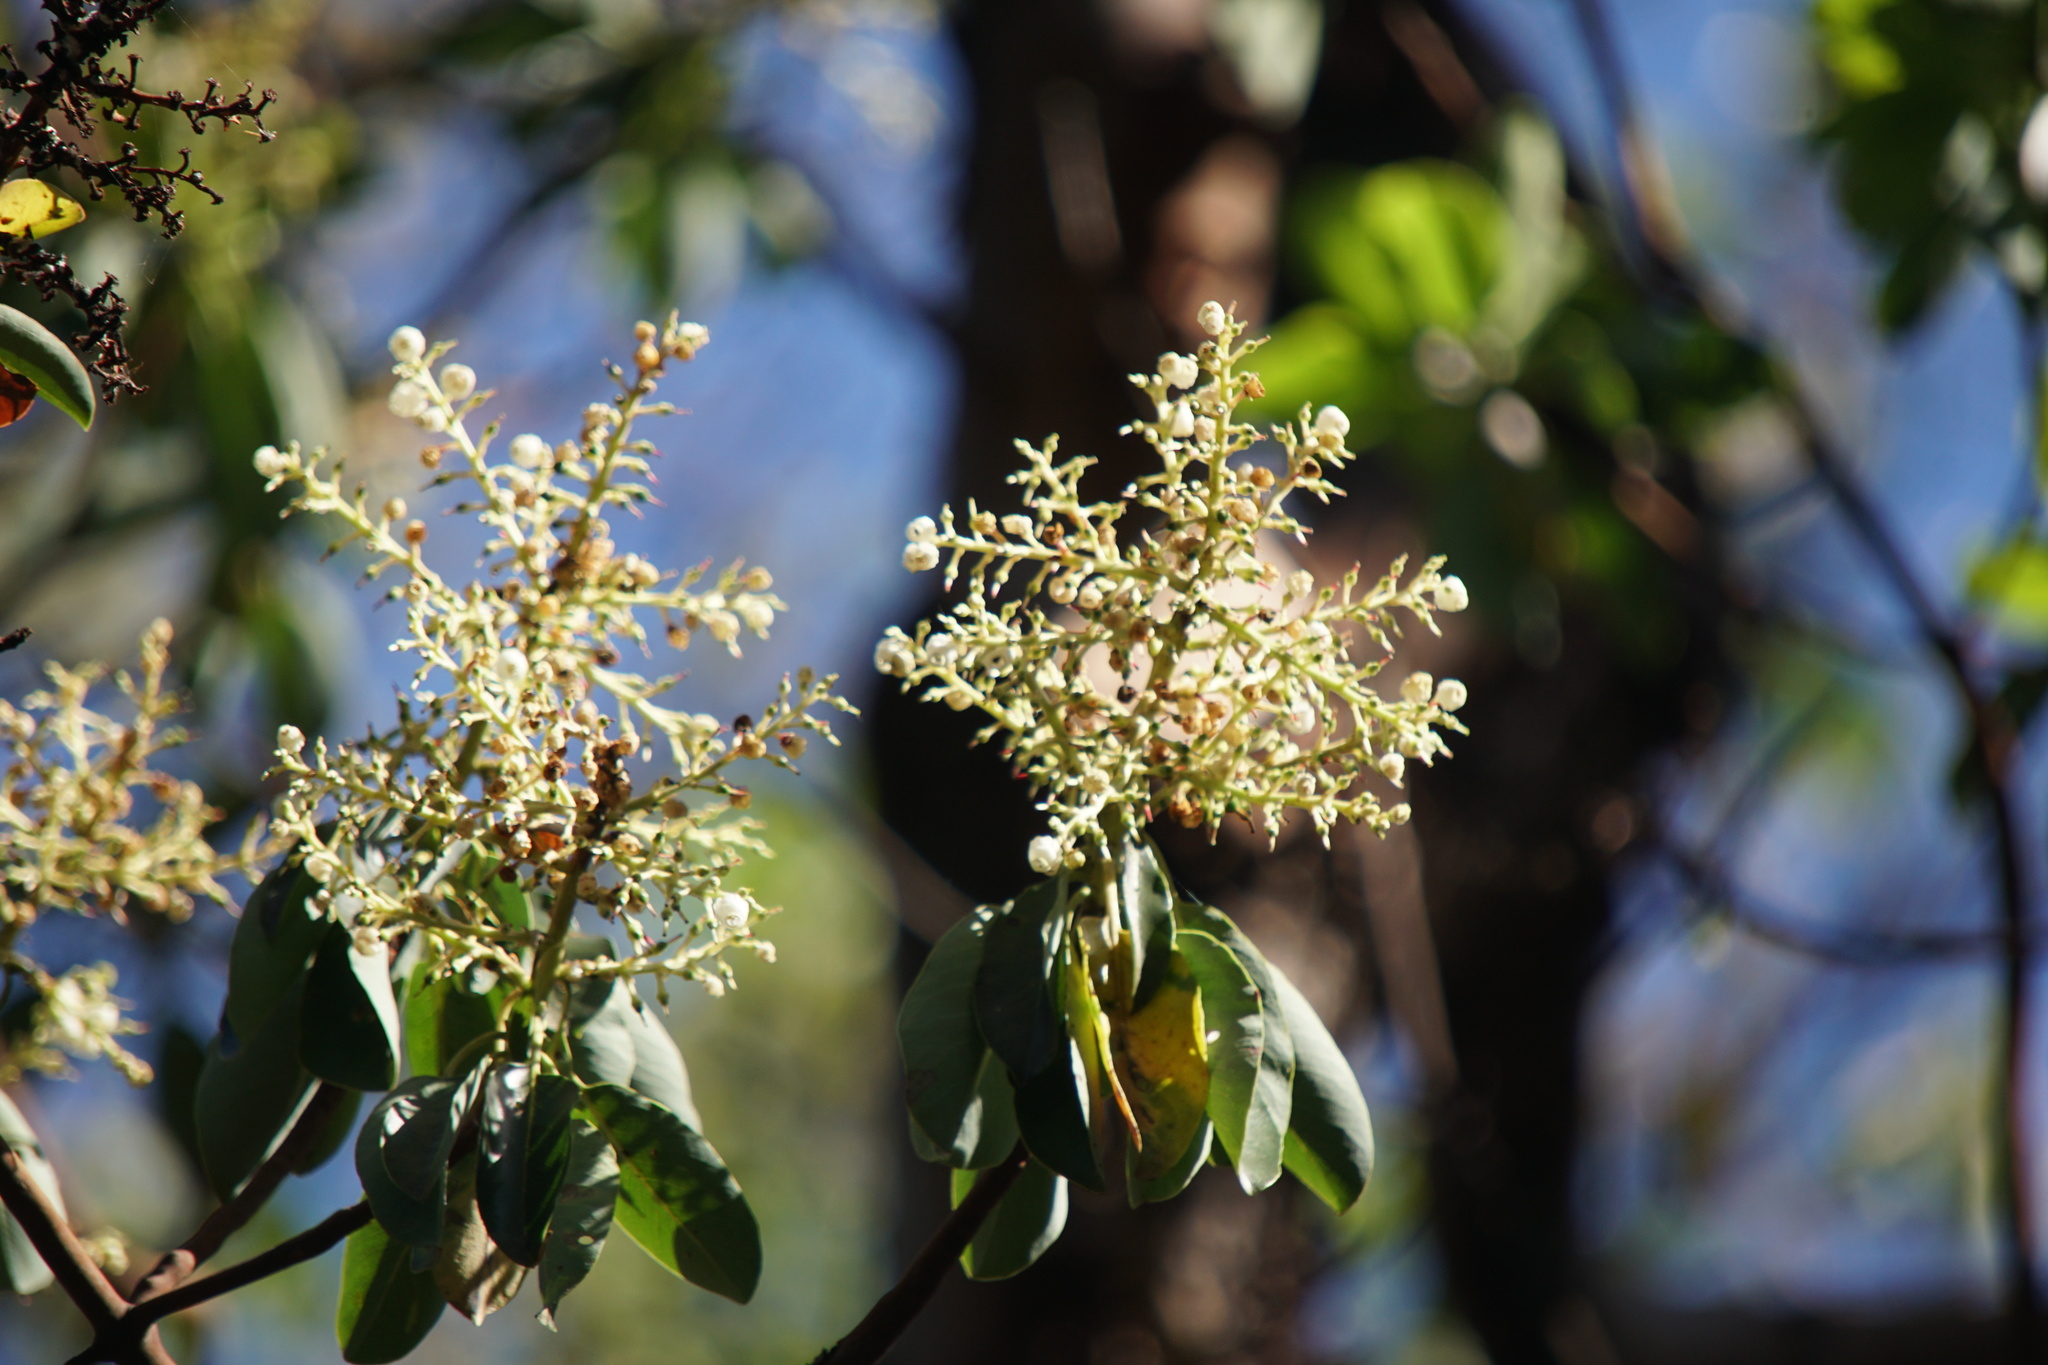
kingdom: Plantae
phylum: Tracheophyta
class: Magnoliopsida
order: Ericales
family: Ericaceae
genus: Arbutus
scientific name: Arbutus menziesii
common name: Pacific madrone
